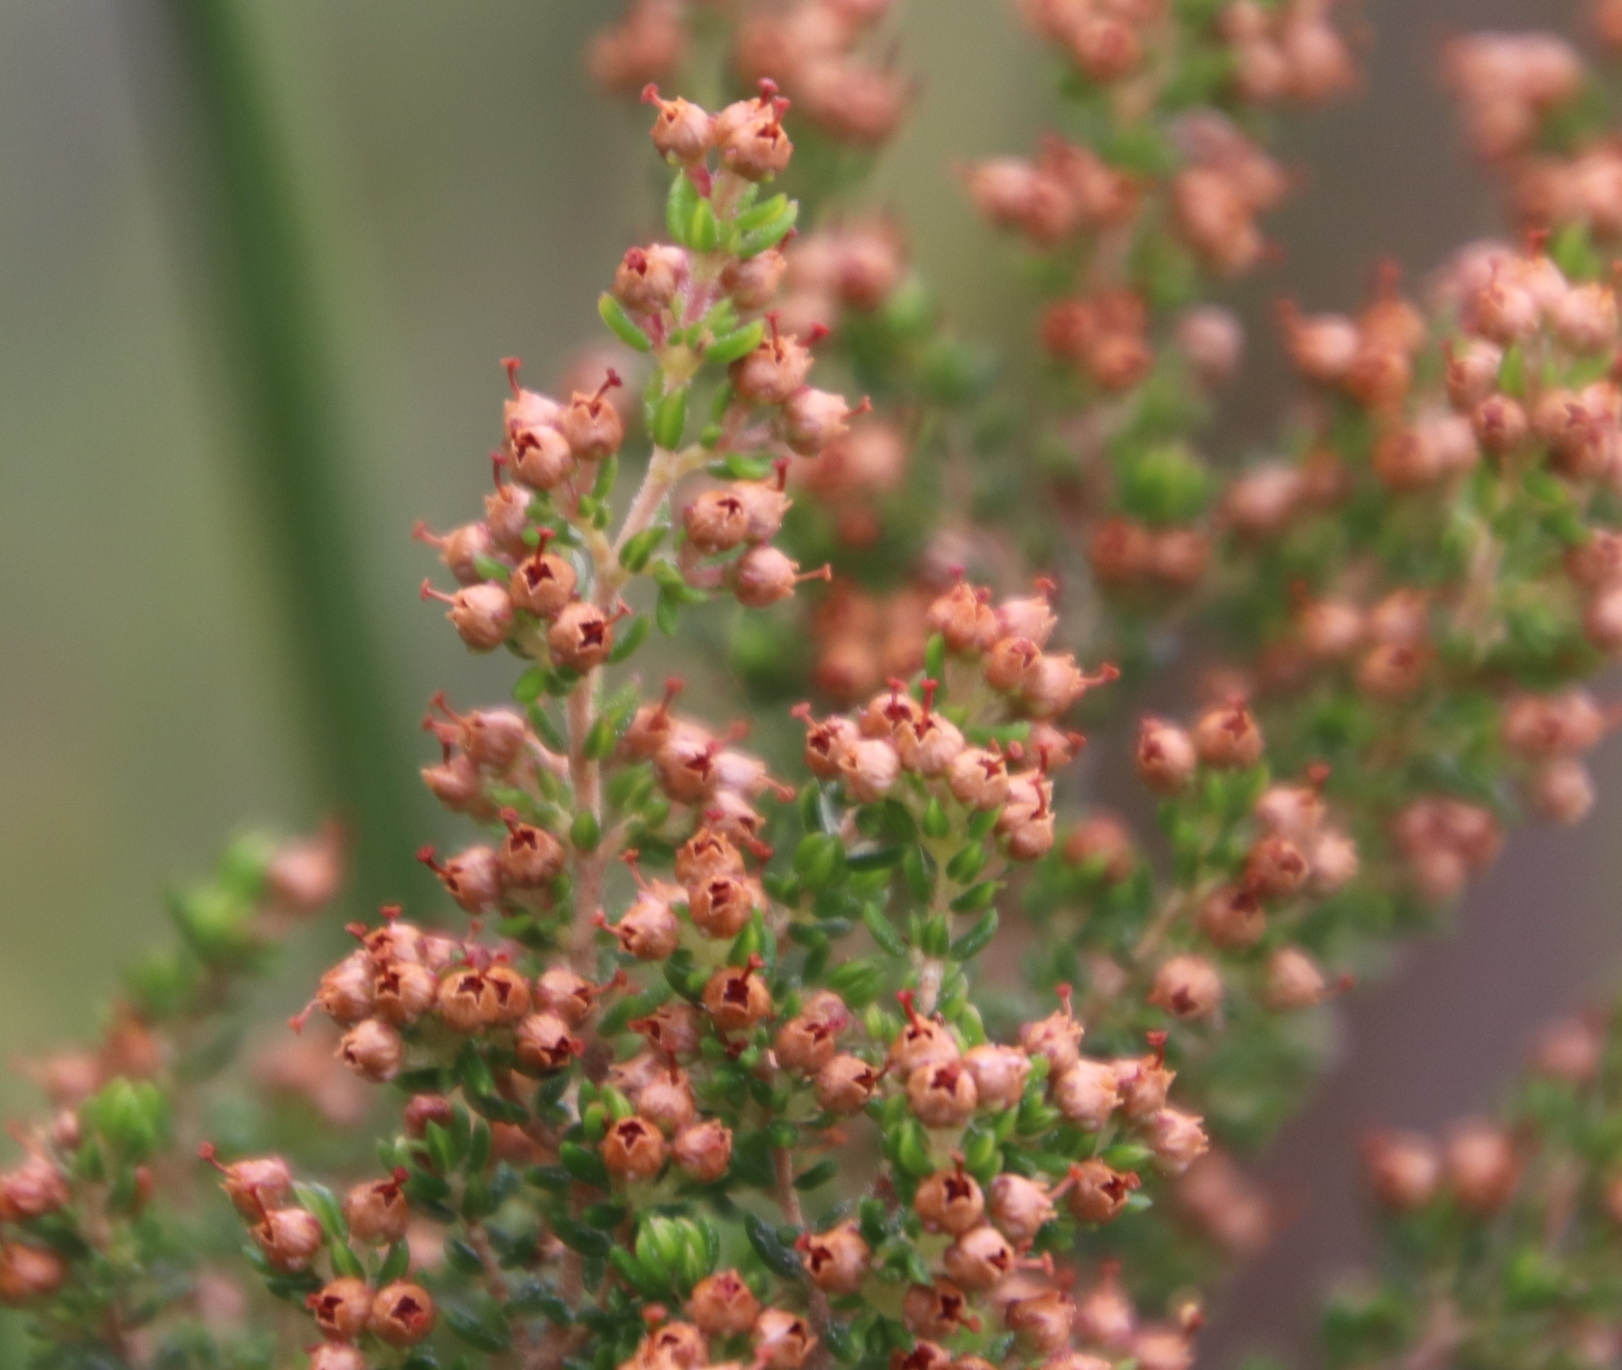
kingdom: Plantae
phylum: Tracheophyta
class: Magnoliopsida
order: Ericales
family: Ericaceae
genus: Erica
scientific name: Erica hispidula
